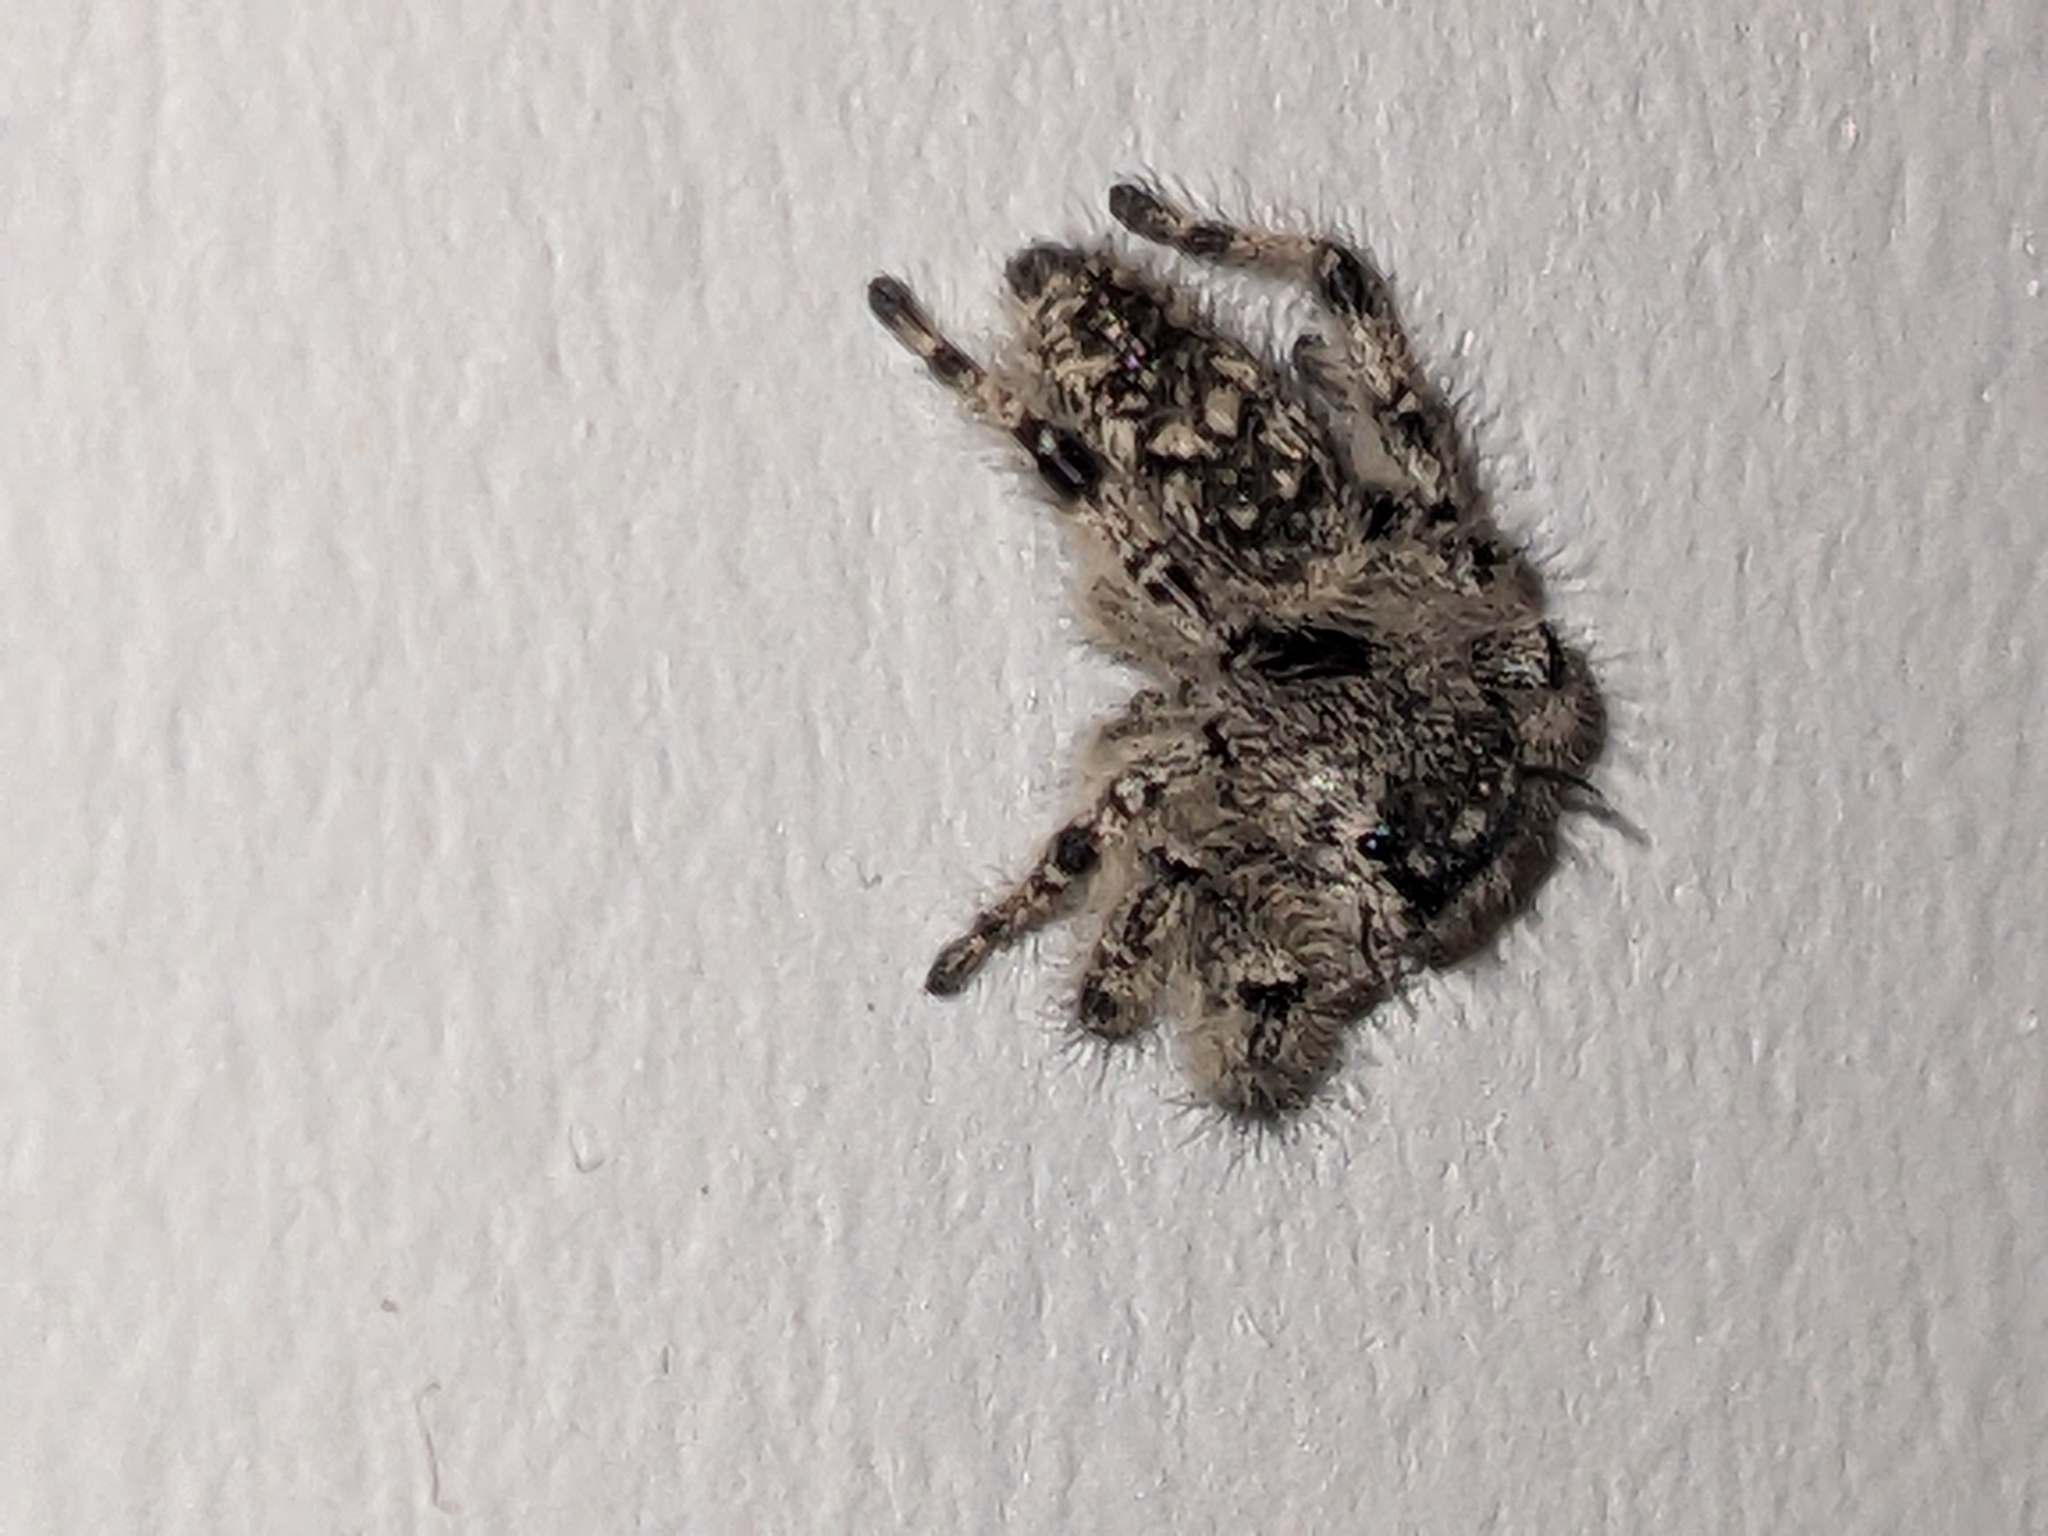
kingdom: Animalia
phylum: Arthropoda
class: Arachnida
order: Araneae
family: Salticidae
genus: Phidippus
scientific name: Phidippus otiosus
